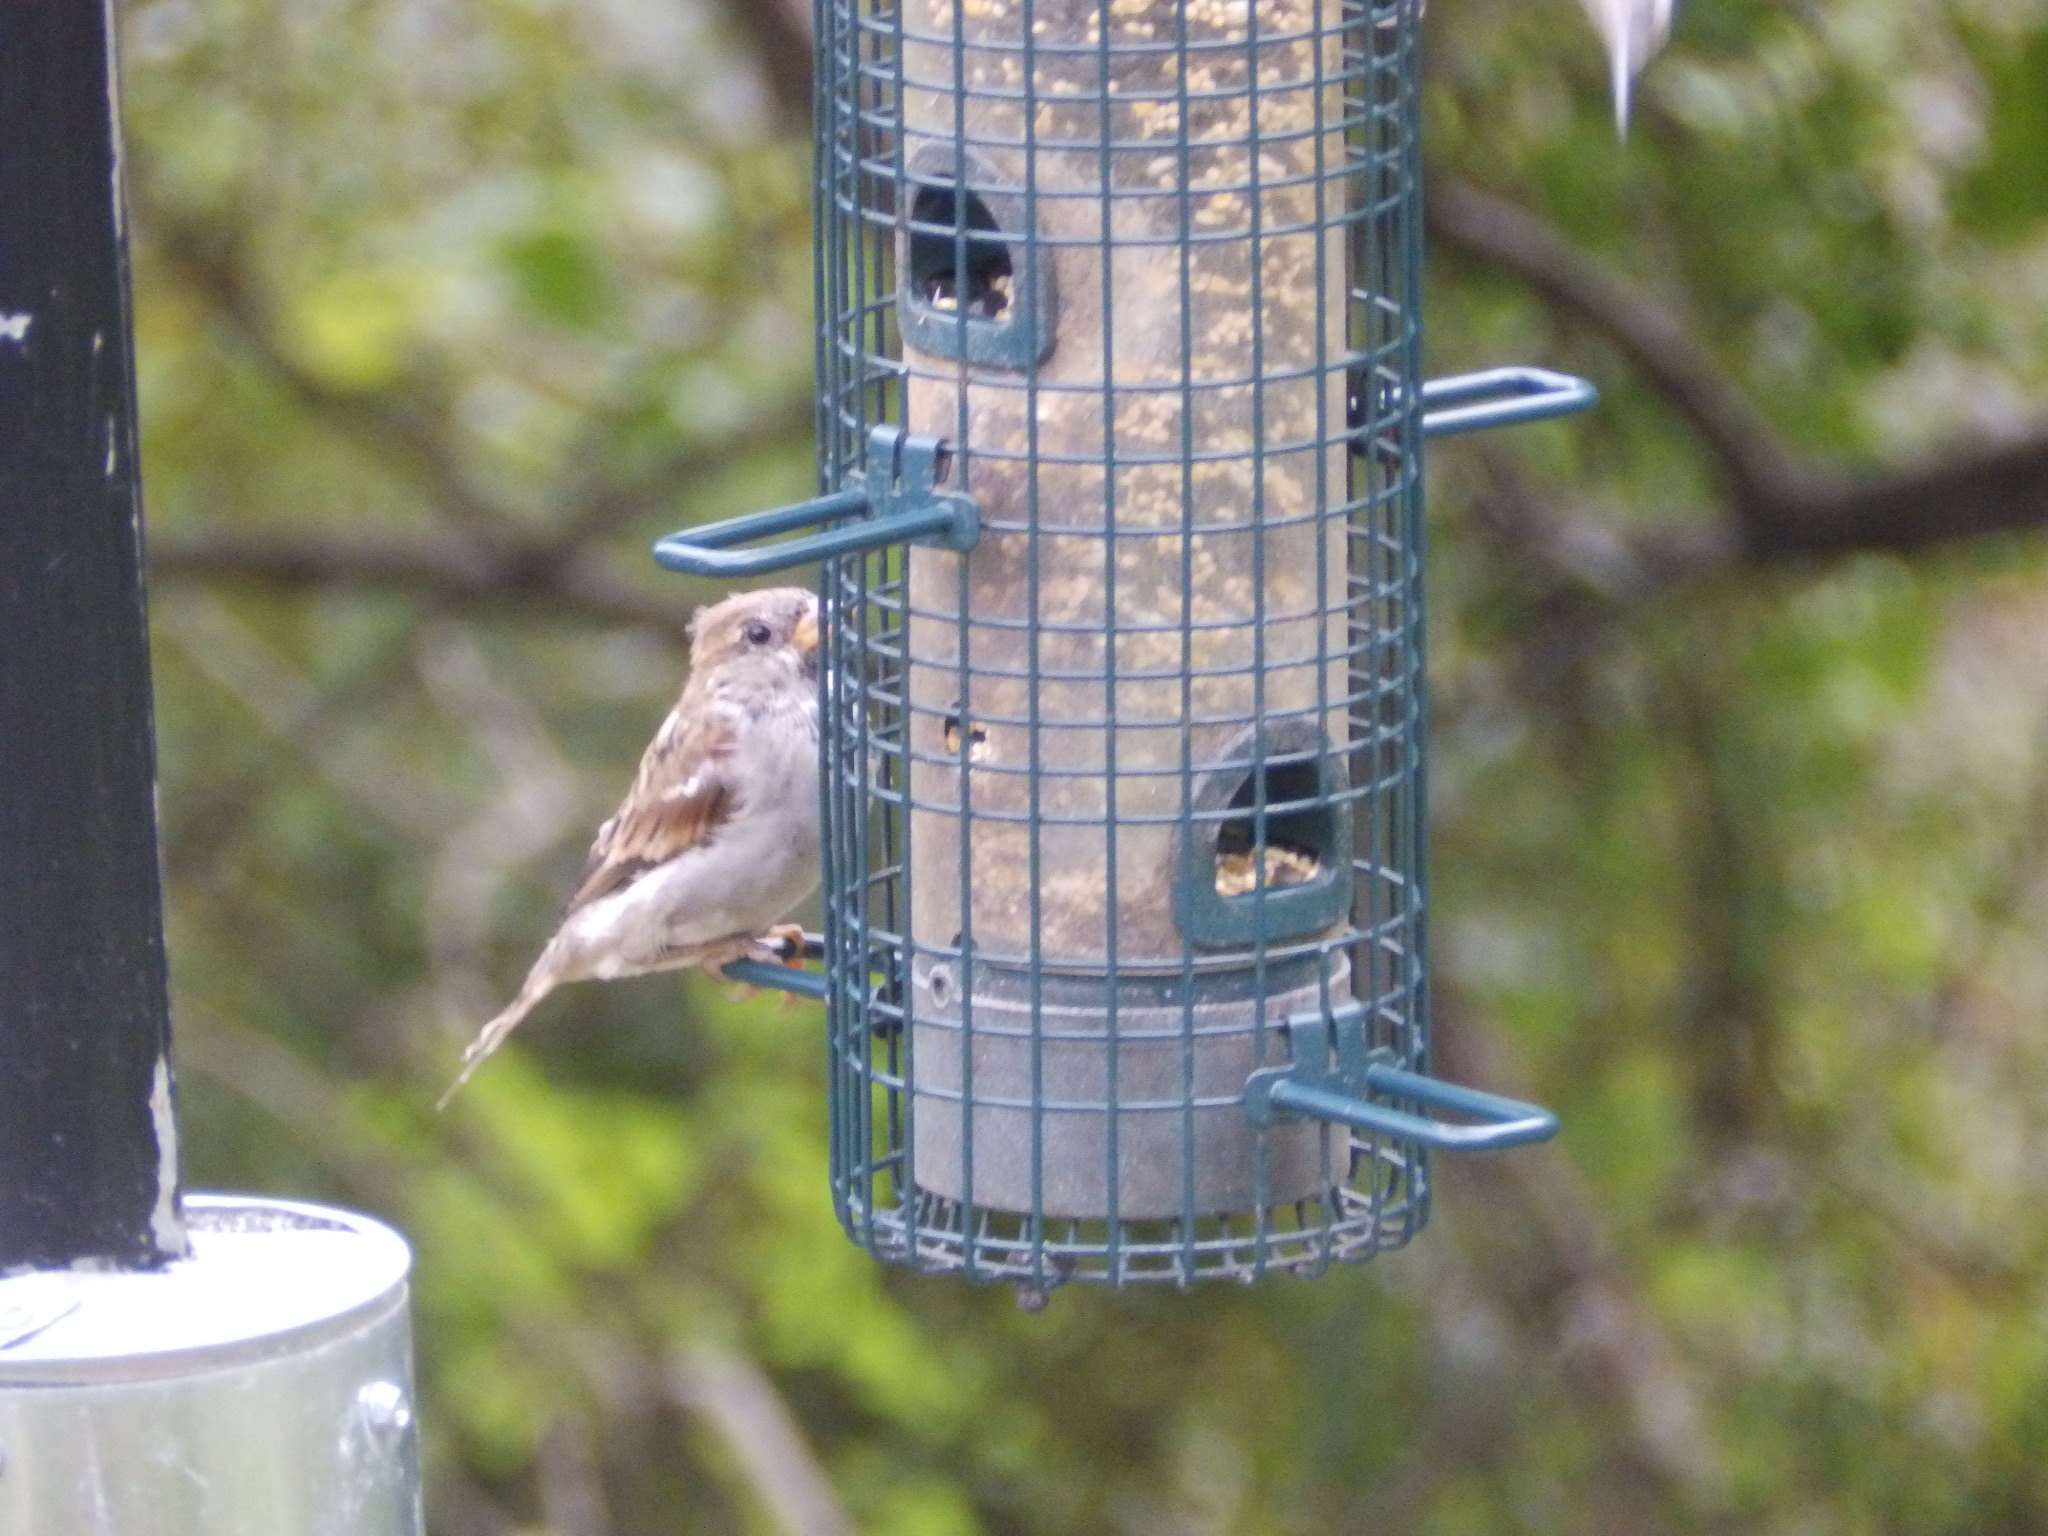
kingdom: Animalia
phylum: Chordata
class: Aves
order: Passeriformes
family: Passeridae
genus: Passer
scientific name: Passer domesticus
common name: House sparrow
